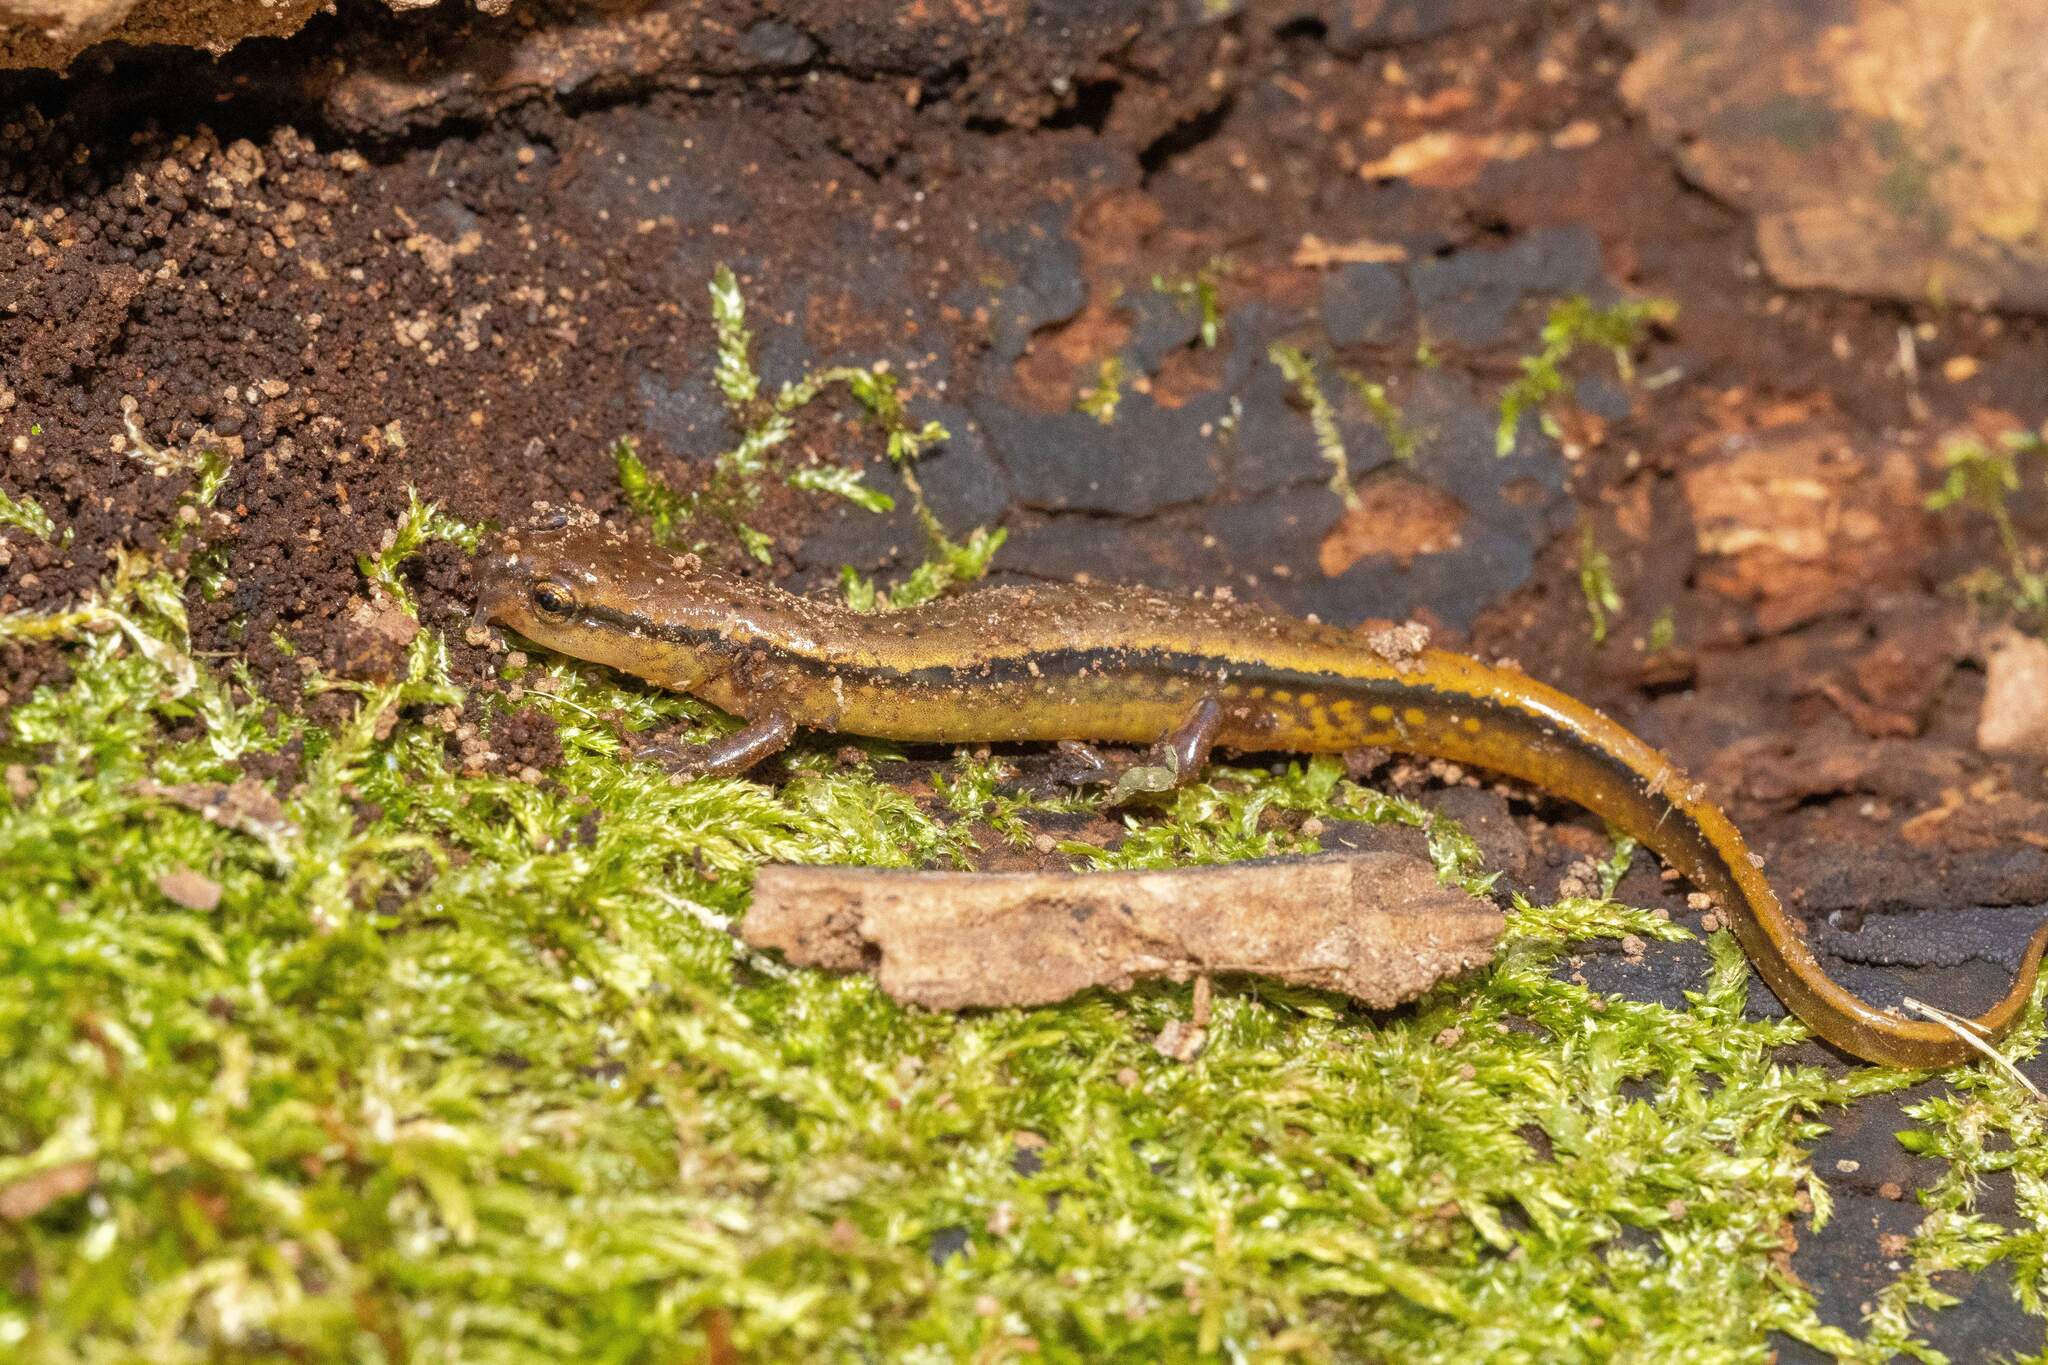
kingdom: Animalia
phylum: Chordata
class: Amphibia
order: Caudata
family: Plethodontidae
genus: Eurycea
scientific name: Eurycea cirrigera
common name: Southern two-lined salamander
